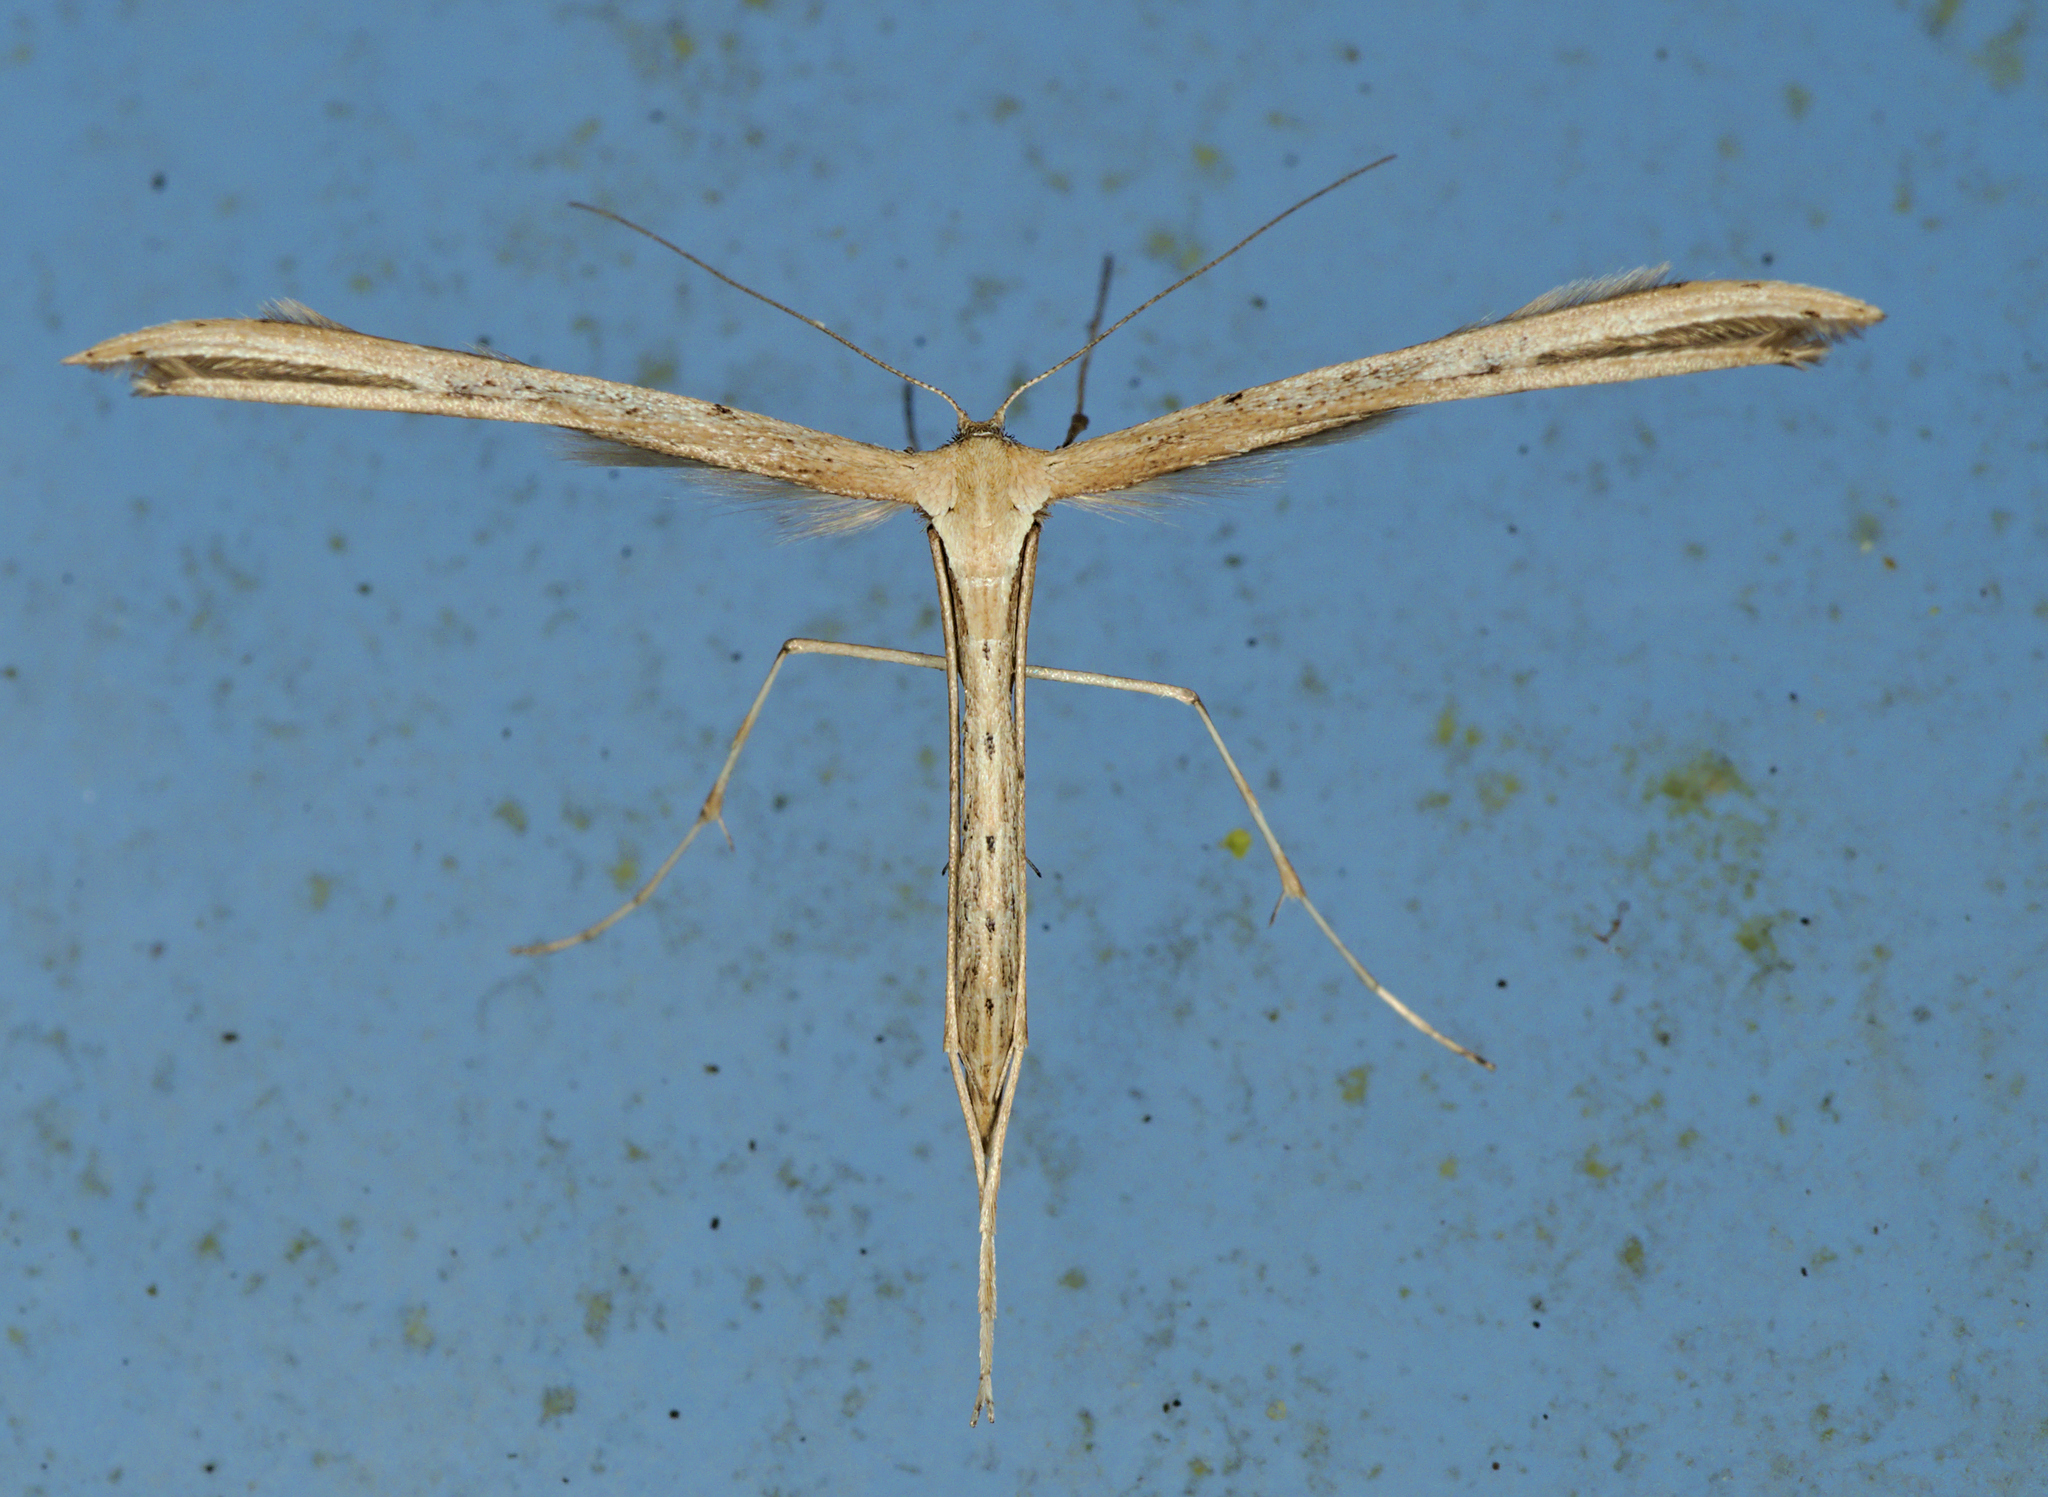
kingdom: Animalia
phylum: Arthropoda
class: Insecta
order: Lepidoptera
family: Pterophoridae
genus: Emmelina
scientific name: Emmelina monodactyla
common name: Common plume
